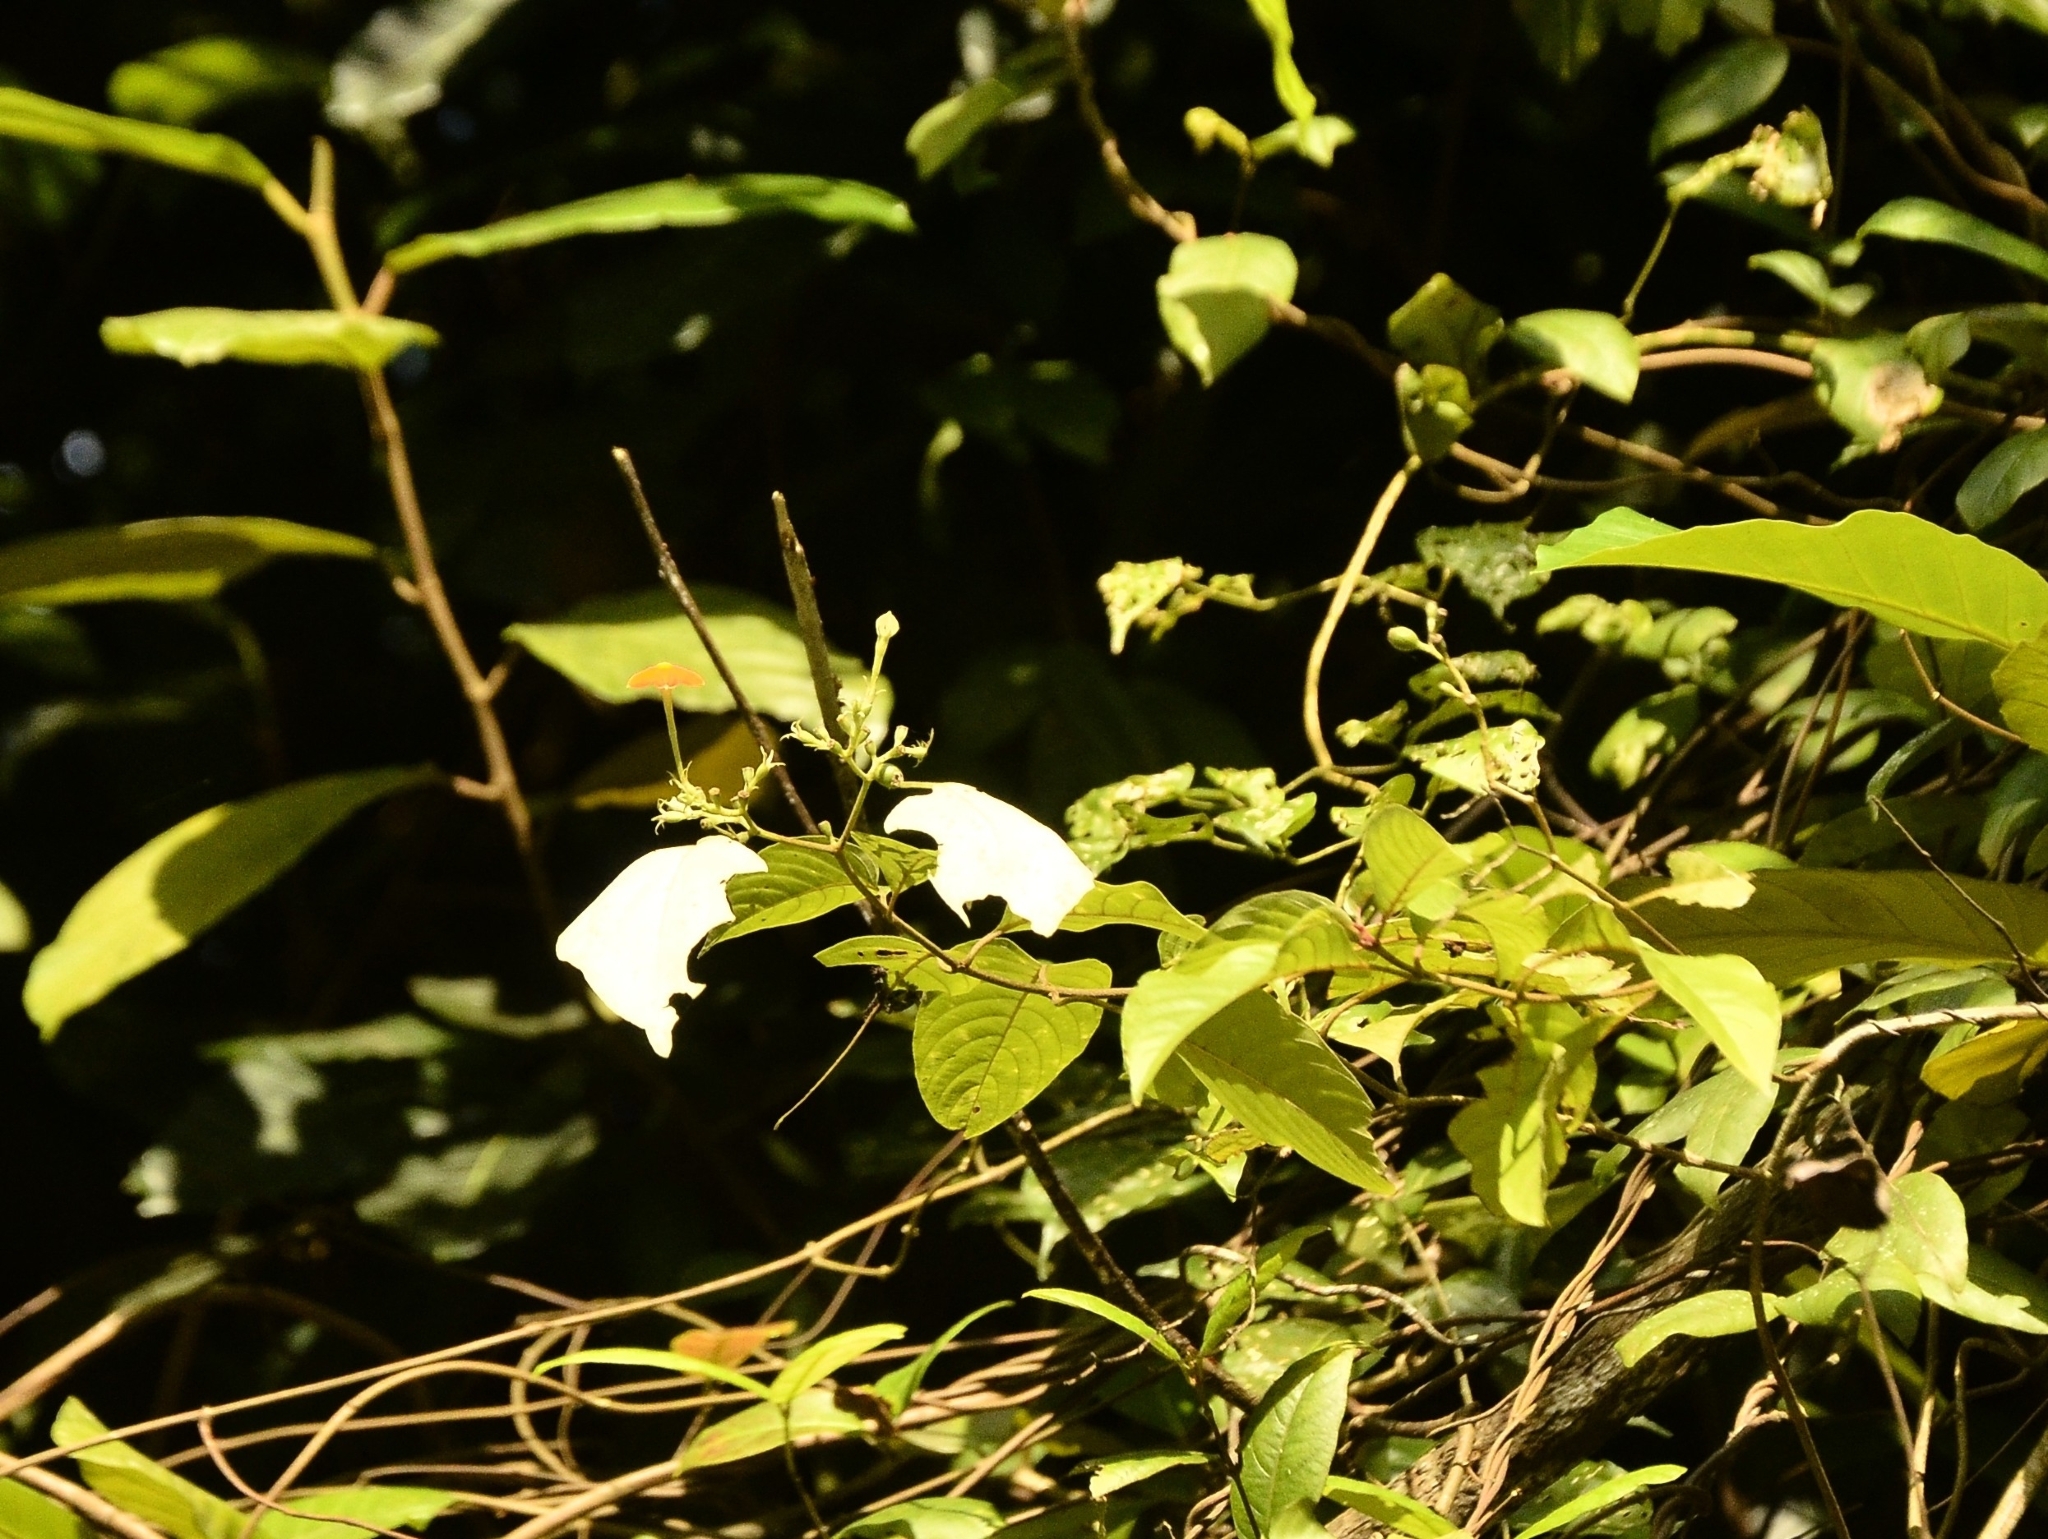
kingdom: Plantae
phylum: Tracheophyta
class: Magnoliopsida
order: Gentianales
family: Rubiaceae
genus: Mussaenda
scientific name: Mussaenda frondosa
